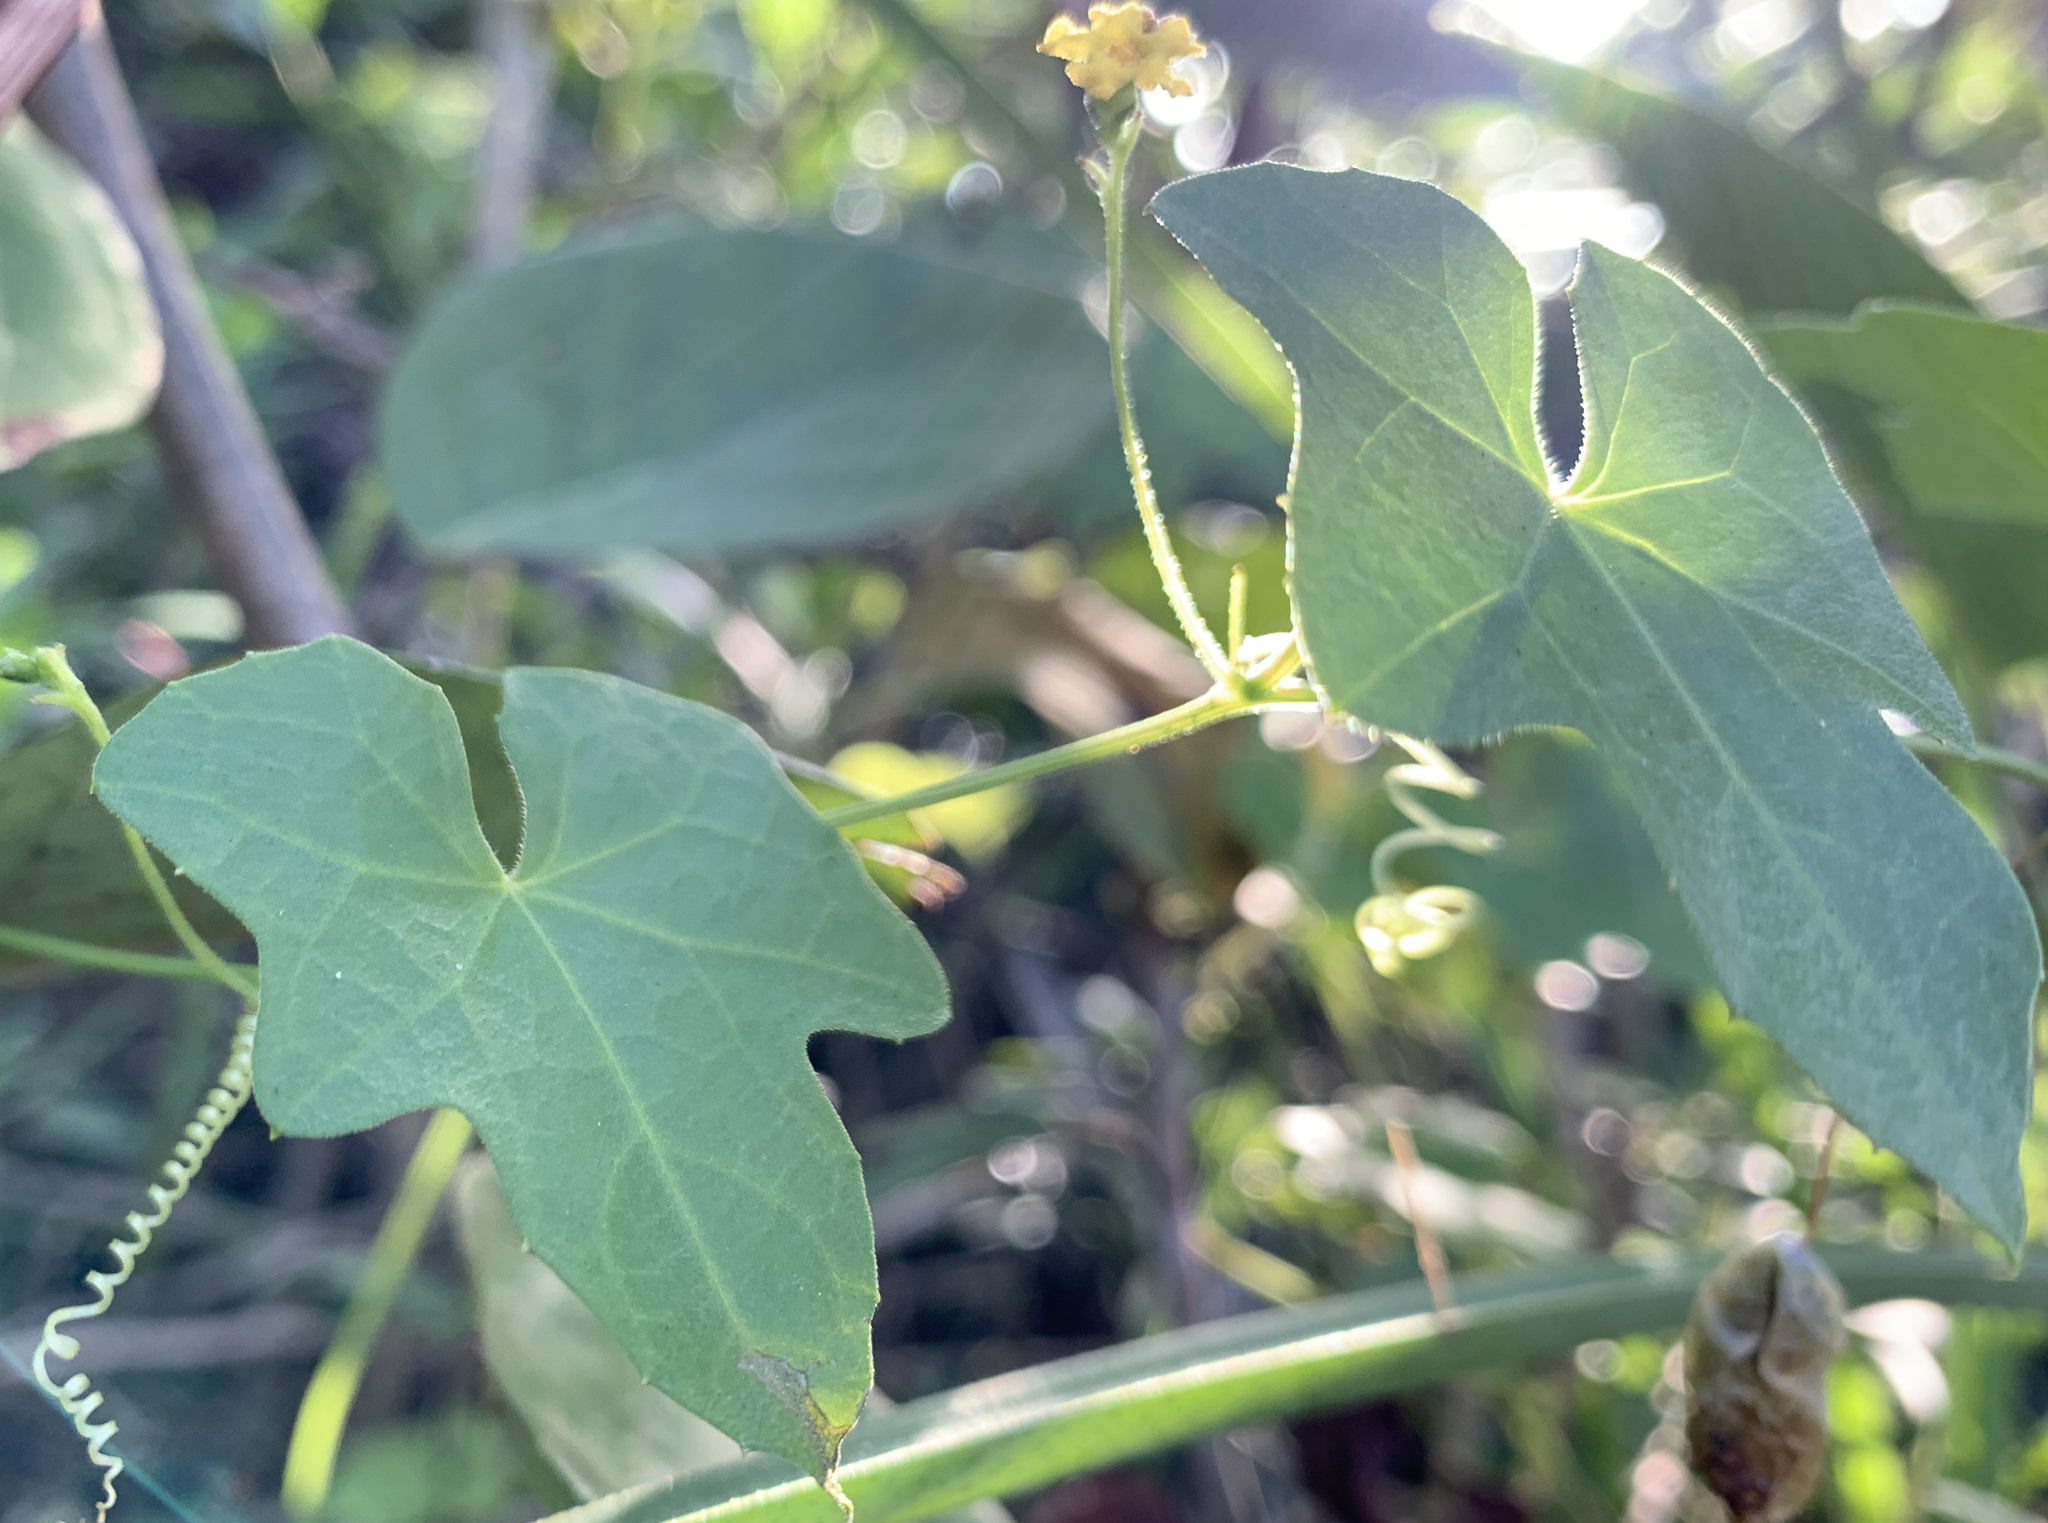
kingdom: Plantae
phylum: Tracheophyta
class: Magnoliopsida
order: Cucurbitales
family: Cucurbitaceae
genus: Melothria
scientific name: Melothria pendula
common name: Creeping-cucumber
